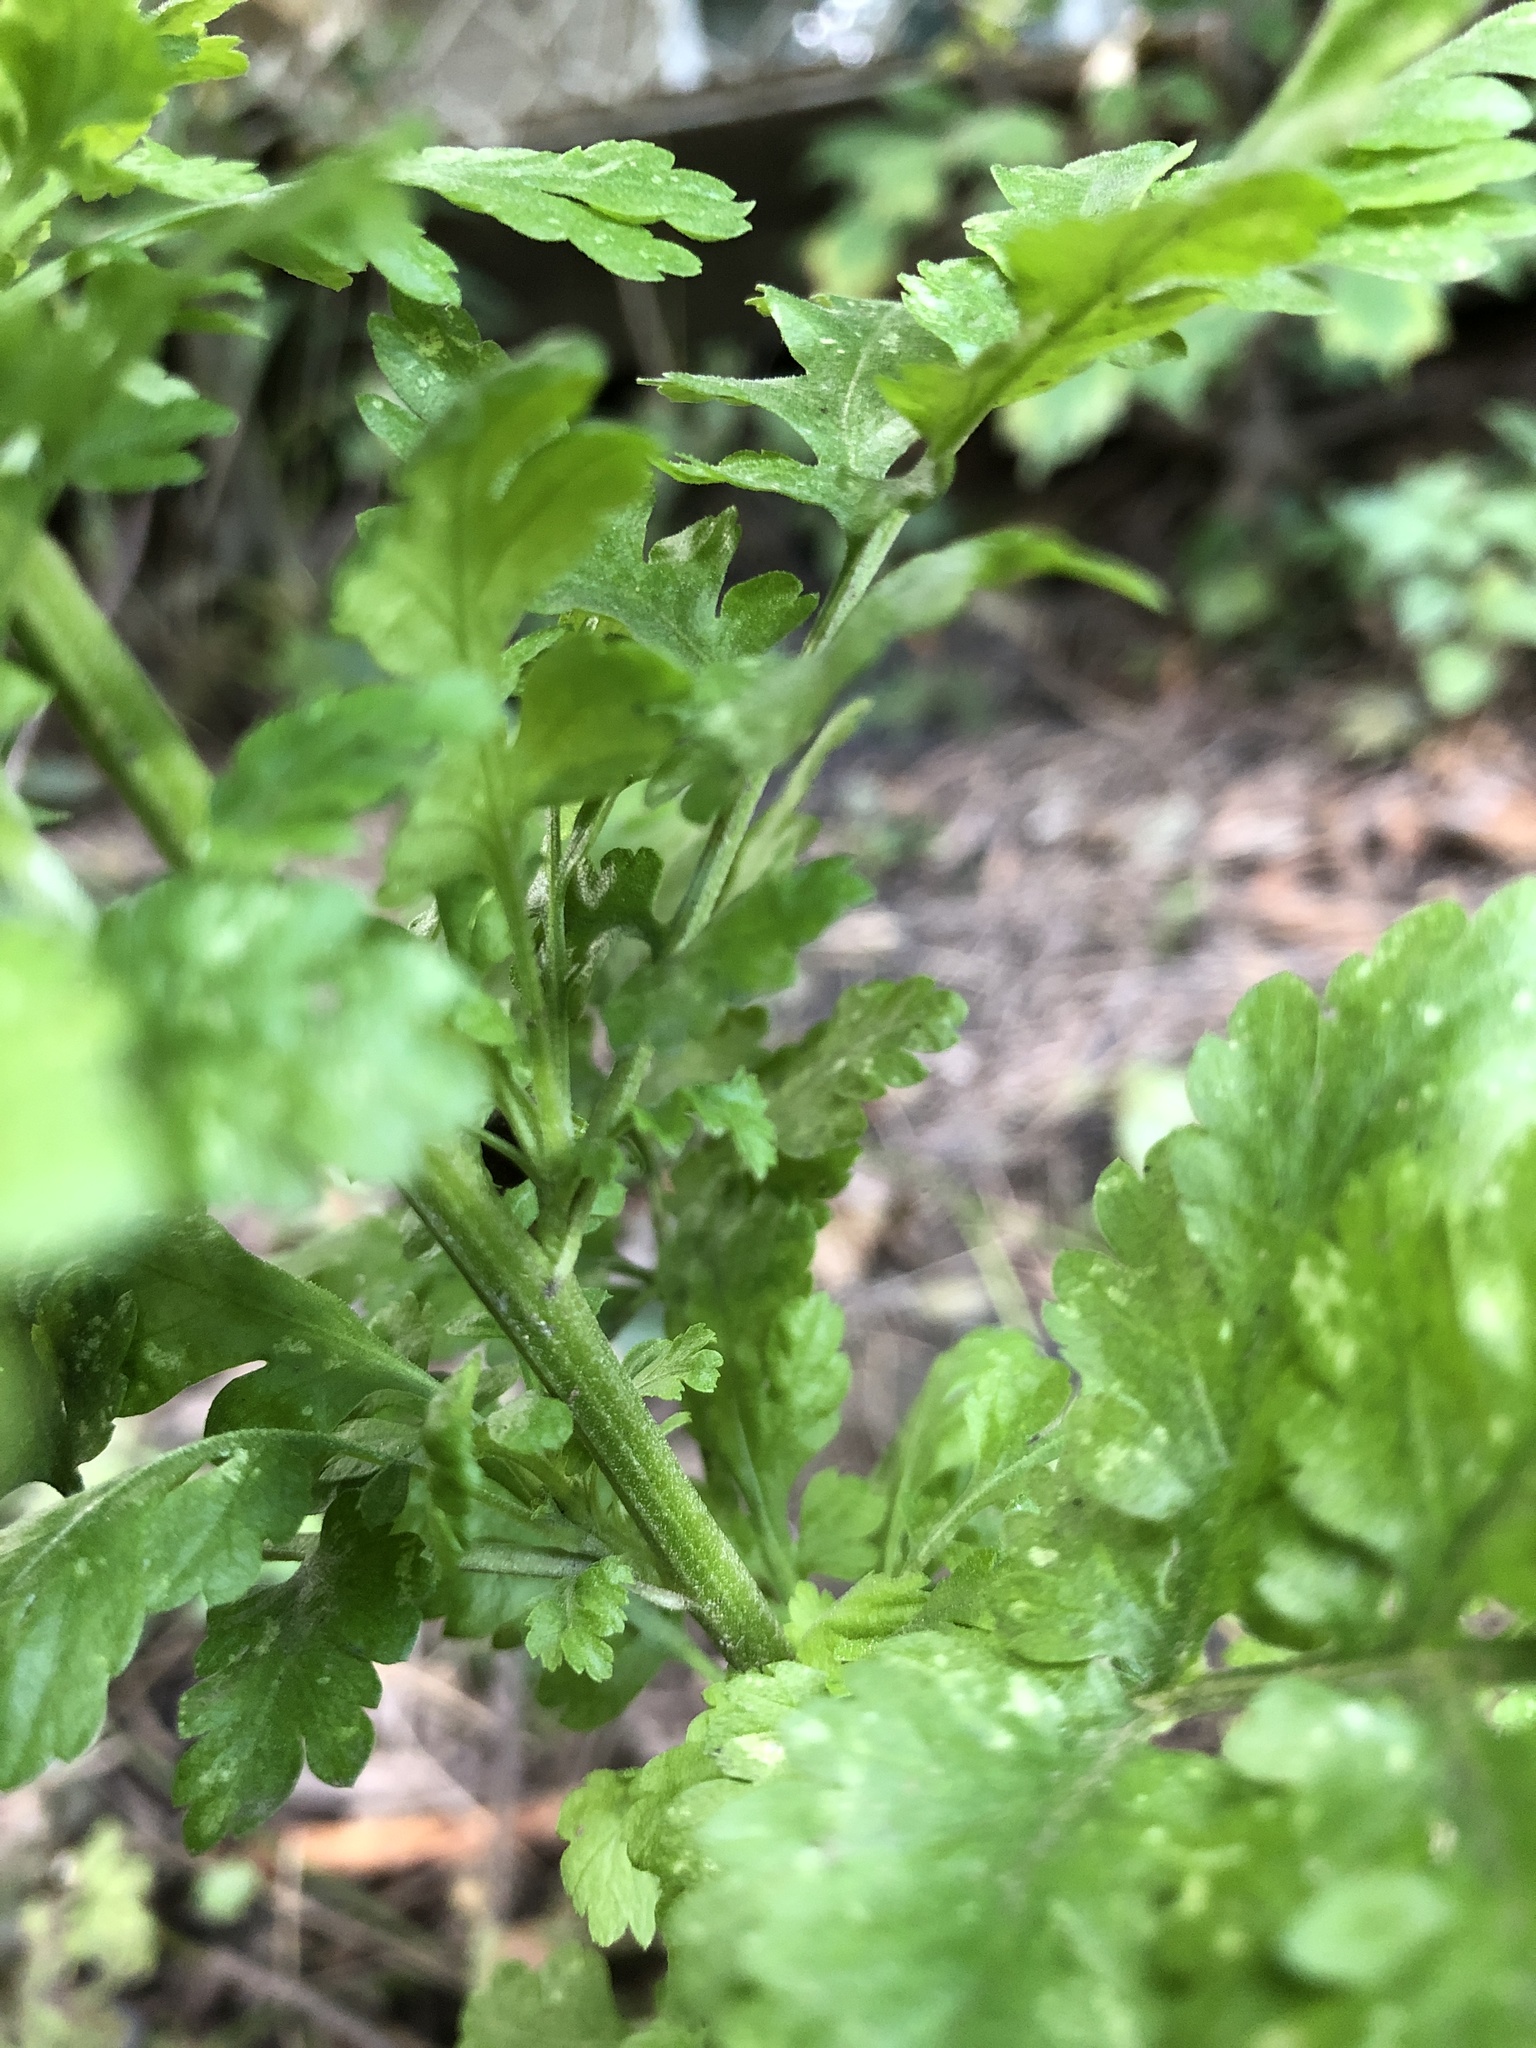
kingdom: Plantae
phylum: Tracheophyta
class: Magnoliopsida
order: Asterales
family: Asteraceae
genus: Tanacetum
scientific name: Tanacetum parthenium
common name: Feverfew
